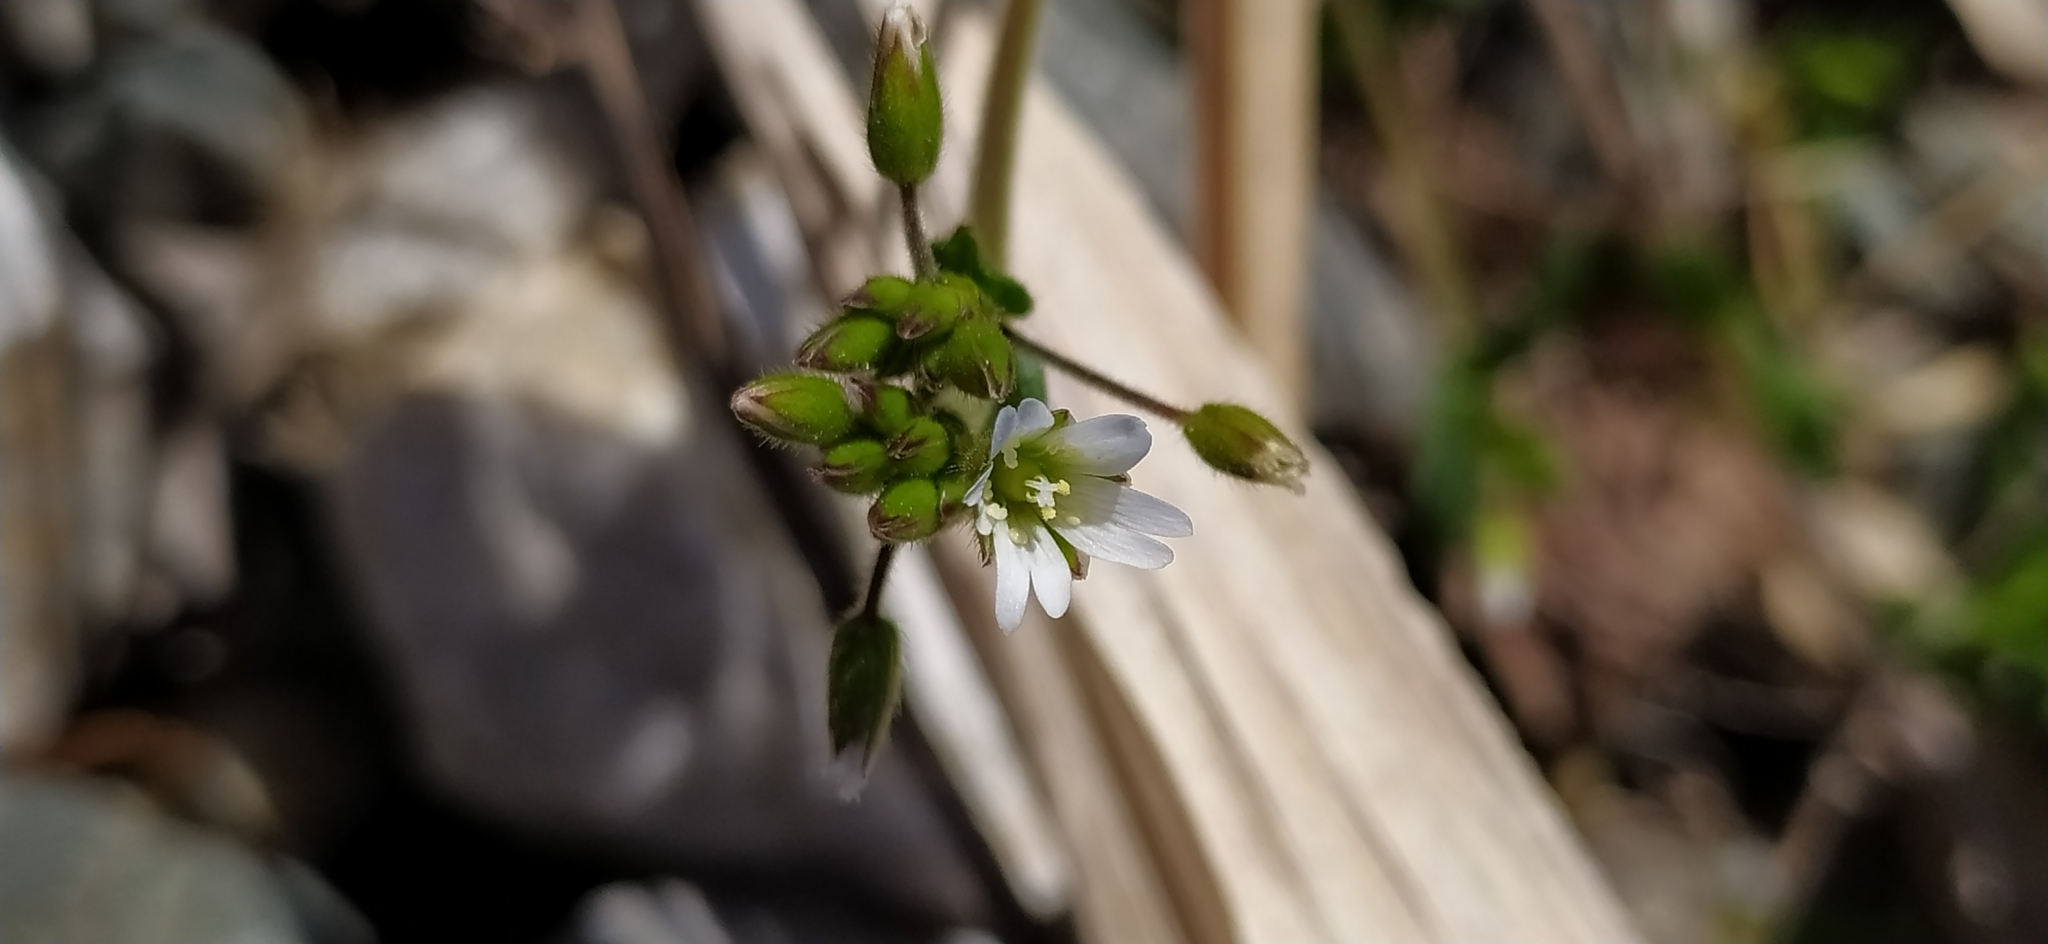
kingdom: Plantae
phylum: Tracheophyta
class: Magnoliopsida
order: Caryophyllales
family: Caryophyllaceae
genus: Cerastium
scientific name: Cerastium holosteoides
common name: Big chickweed
